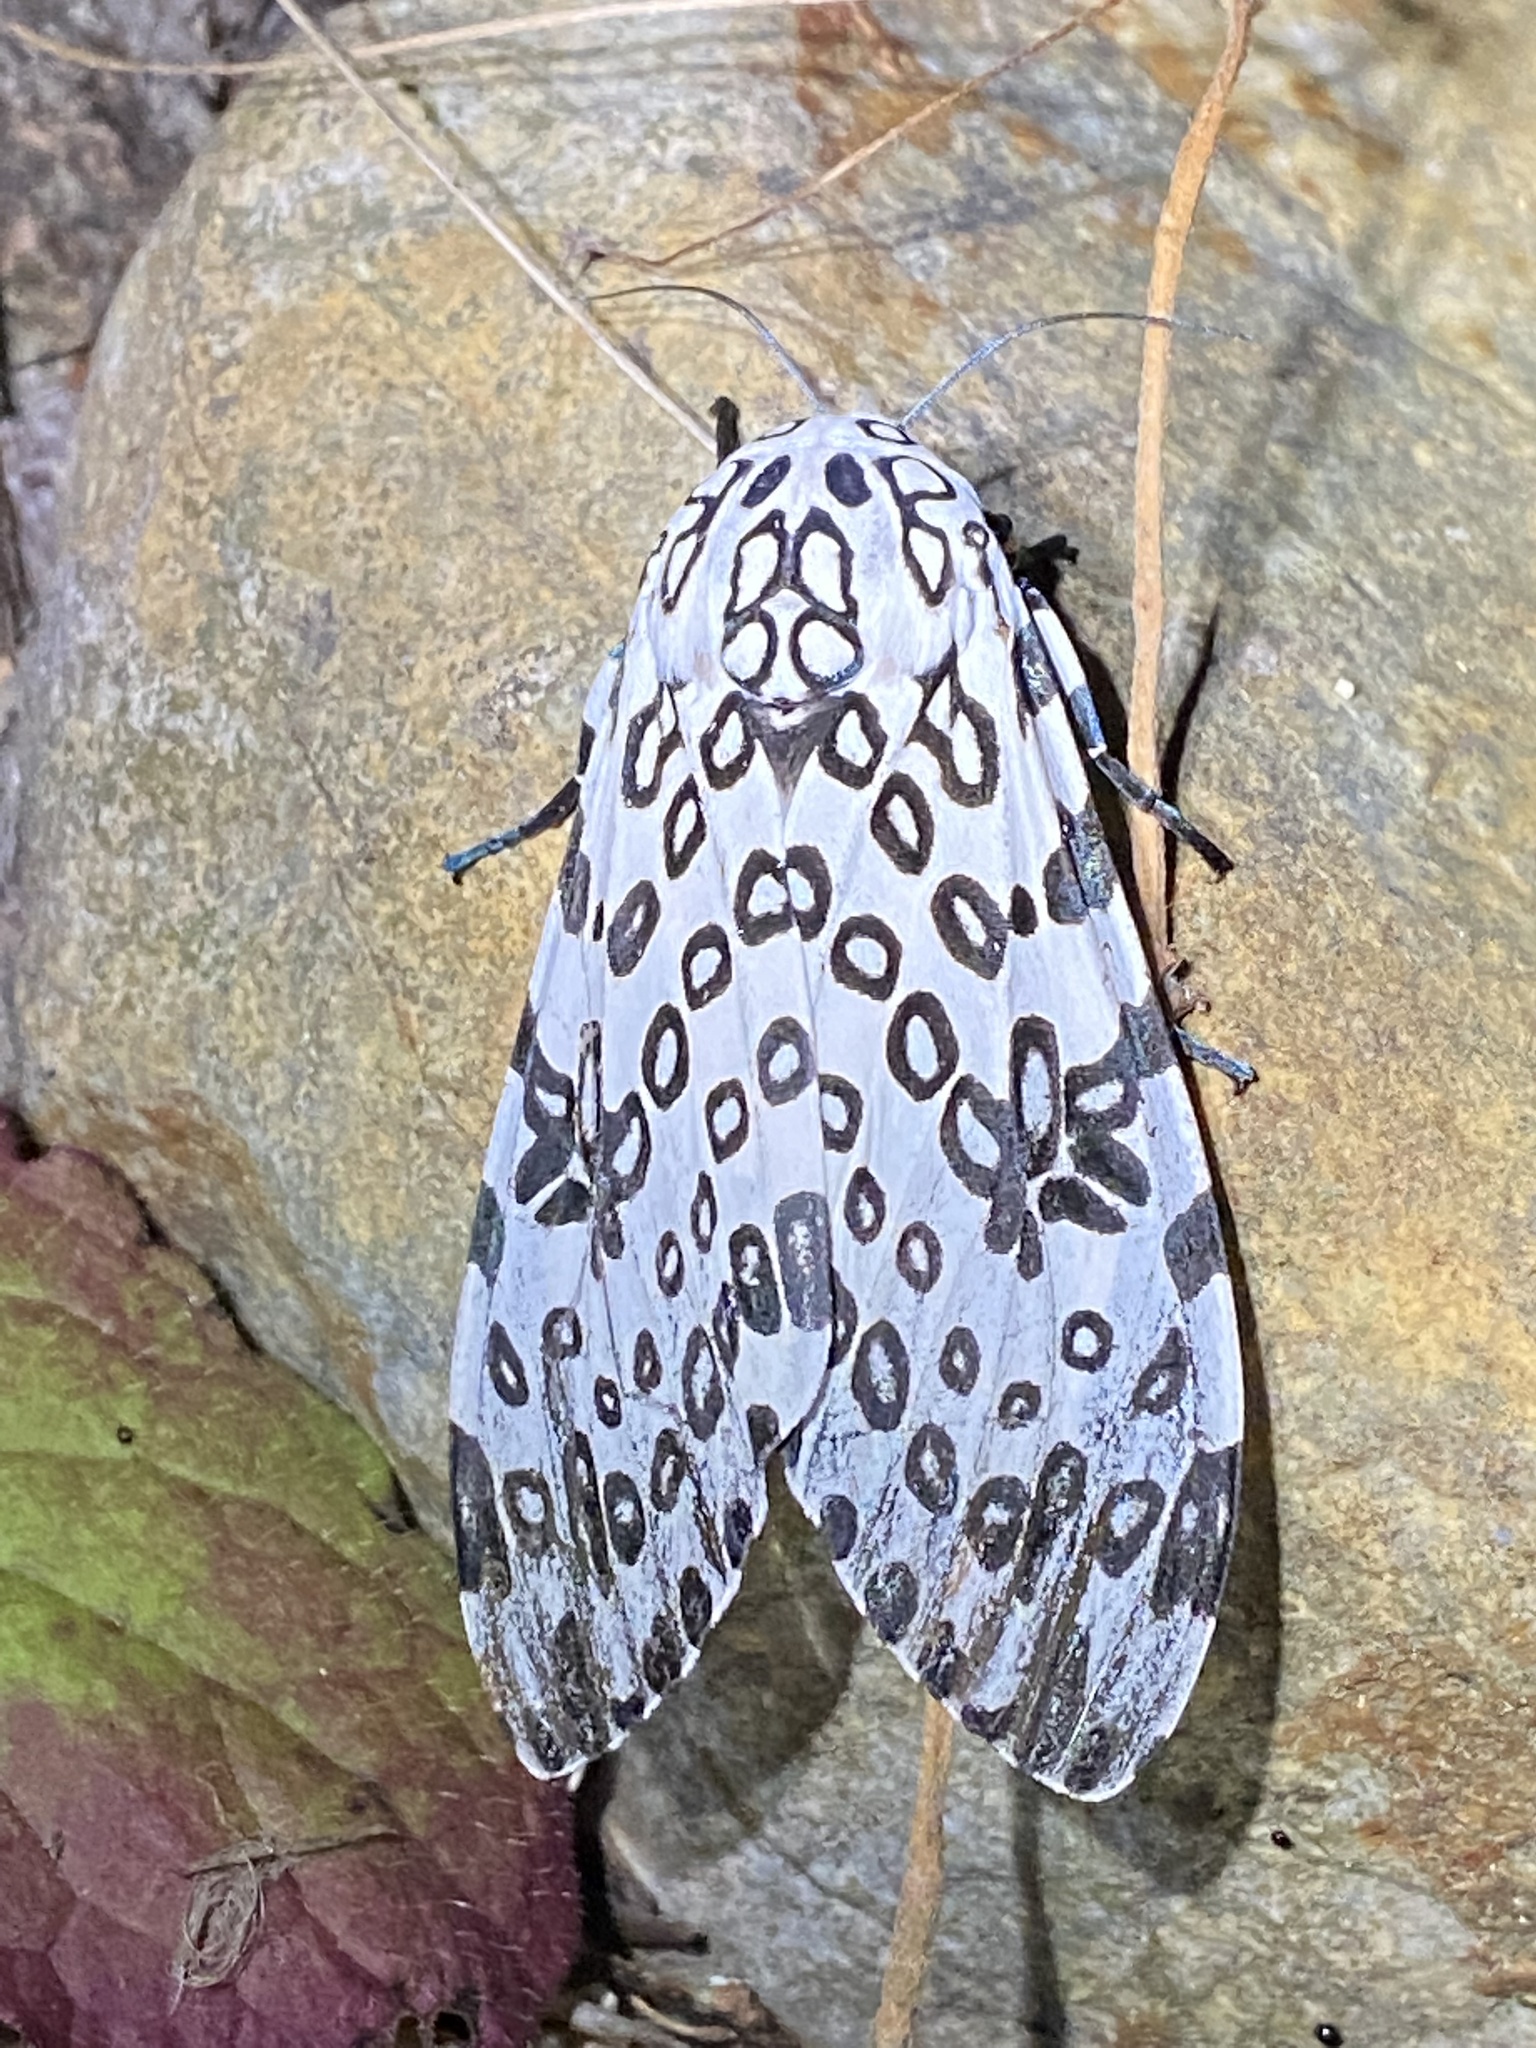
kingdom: Animalia
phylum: Arthropoda
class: Insecta
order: Lepidoptera
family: Erebidae
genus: Hypercompe
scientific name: Hypercompe scribonia
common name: Giant leopard moth
